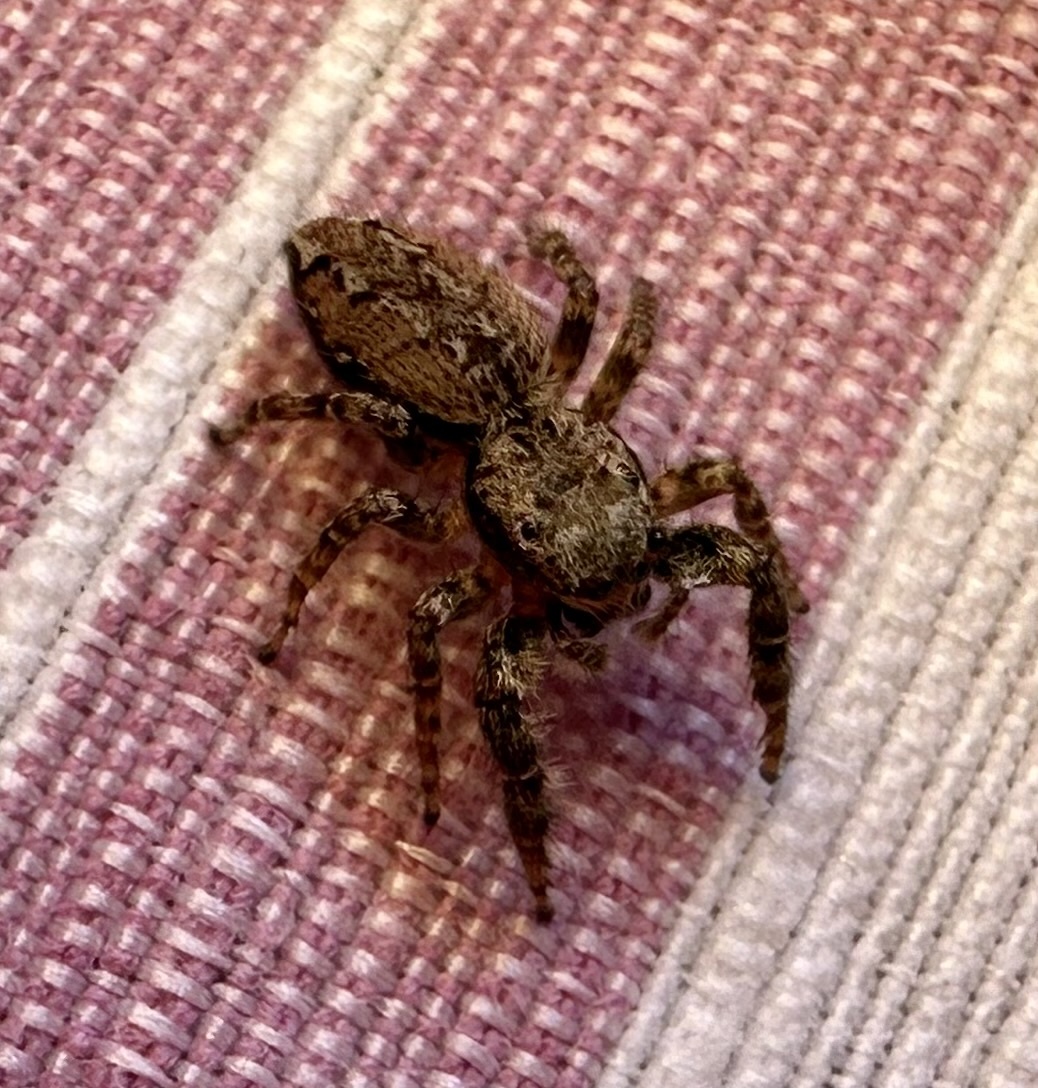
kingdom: Animalia
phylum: Arthropoda
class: Arachnida
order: Araneae
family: Salticidae
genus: Marpissa
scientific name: Marpissa muscosa
